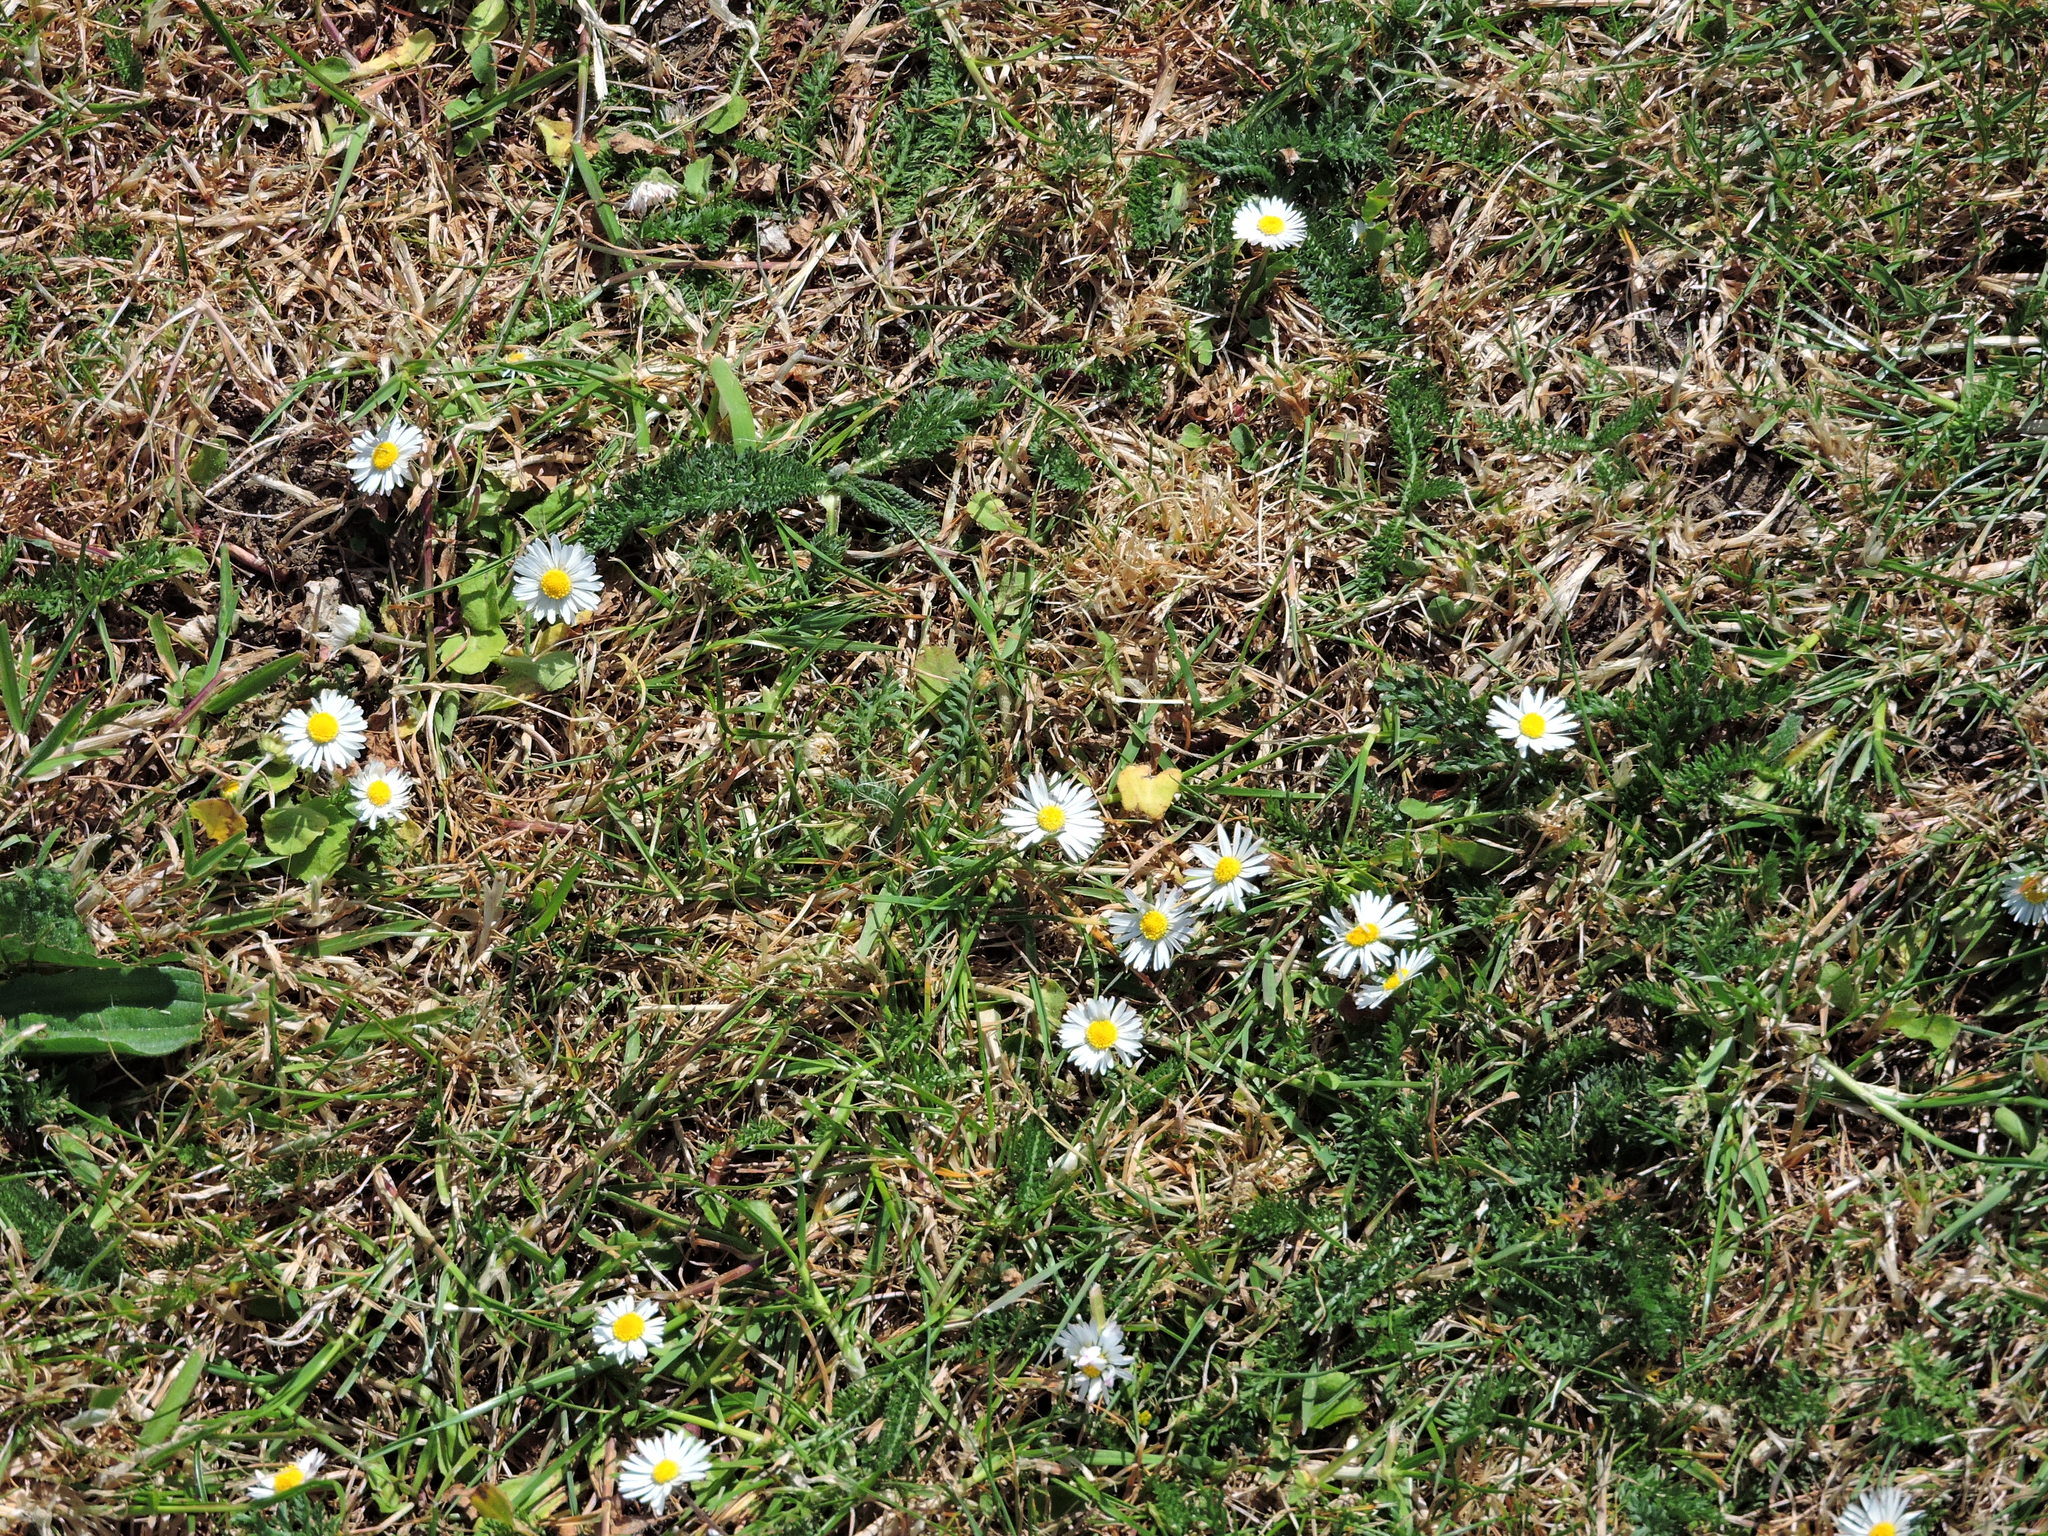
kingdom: Plantae
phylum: Tracheophyta
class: Magnoliopsida
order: Asterales
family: Asteraceae
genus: Bellis
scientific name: Bellis perennis
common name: Lawndaisy
